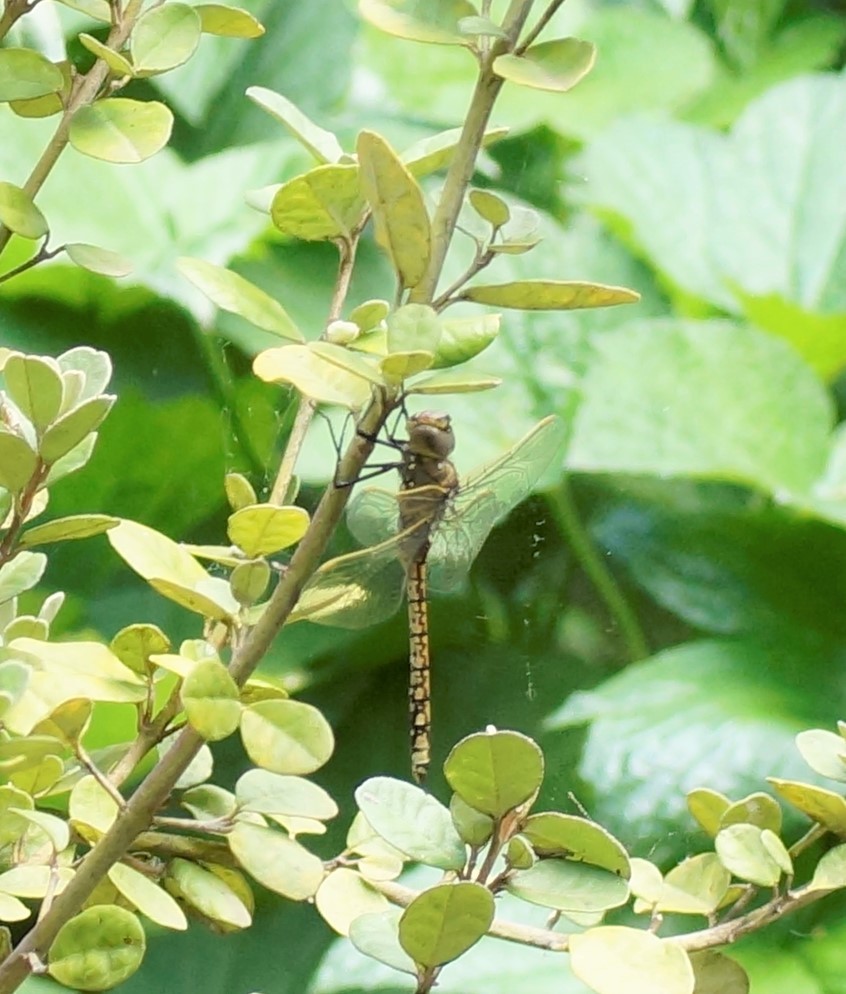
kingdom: Animalia
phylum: Arthropoda
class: Insecta
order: Odonata
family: Aeshnidae
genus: Anax
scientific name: Anax papuensis
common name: Australian emperor
